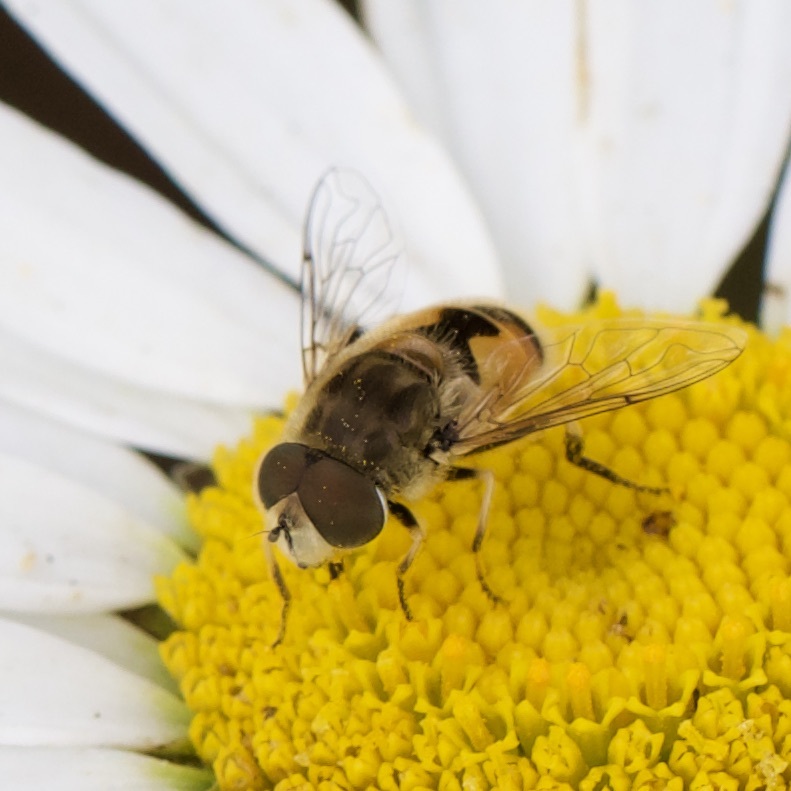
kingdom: Animalia
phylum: Arthropoda
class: Insecta
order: Diptera
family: Syrphidae
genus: Eristalis
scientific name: Eristalis arbustorum
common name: Hover fly
